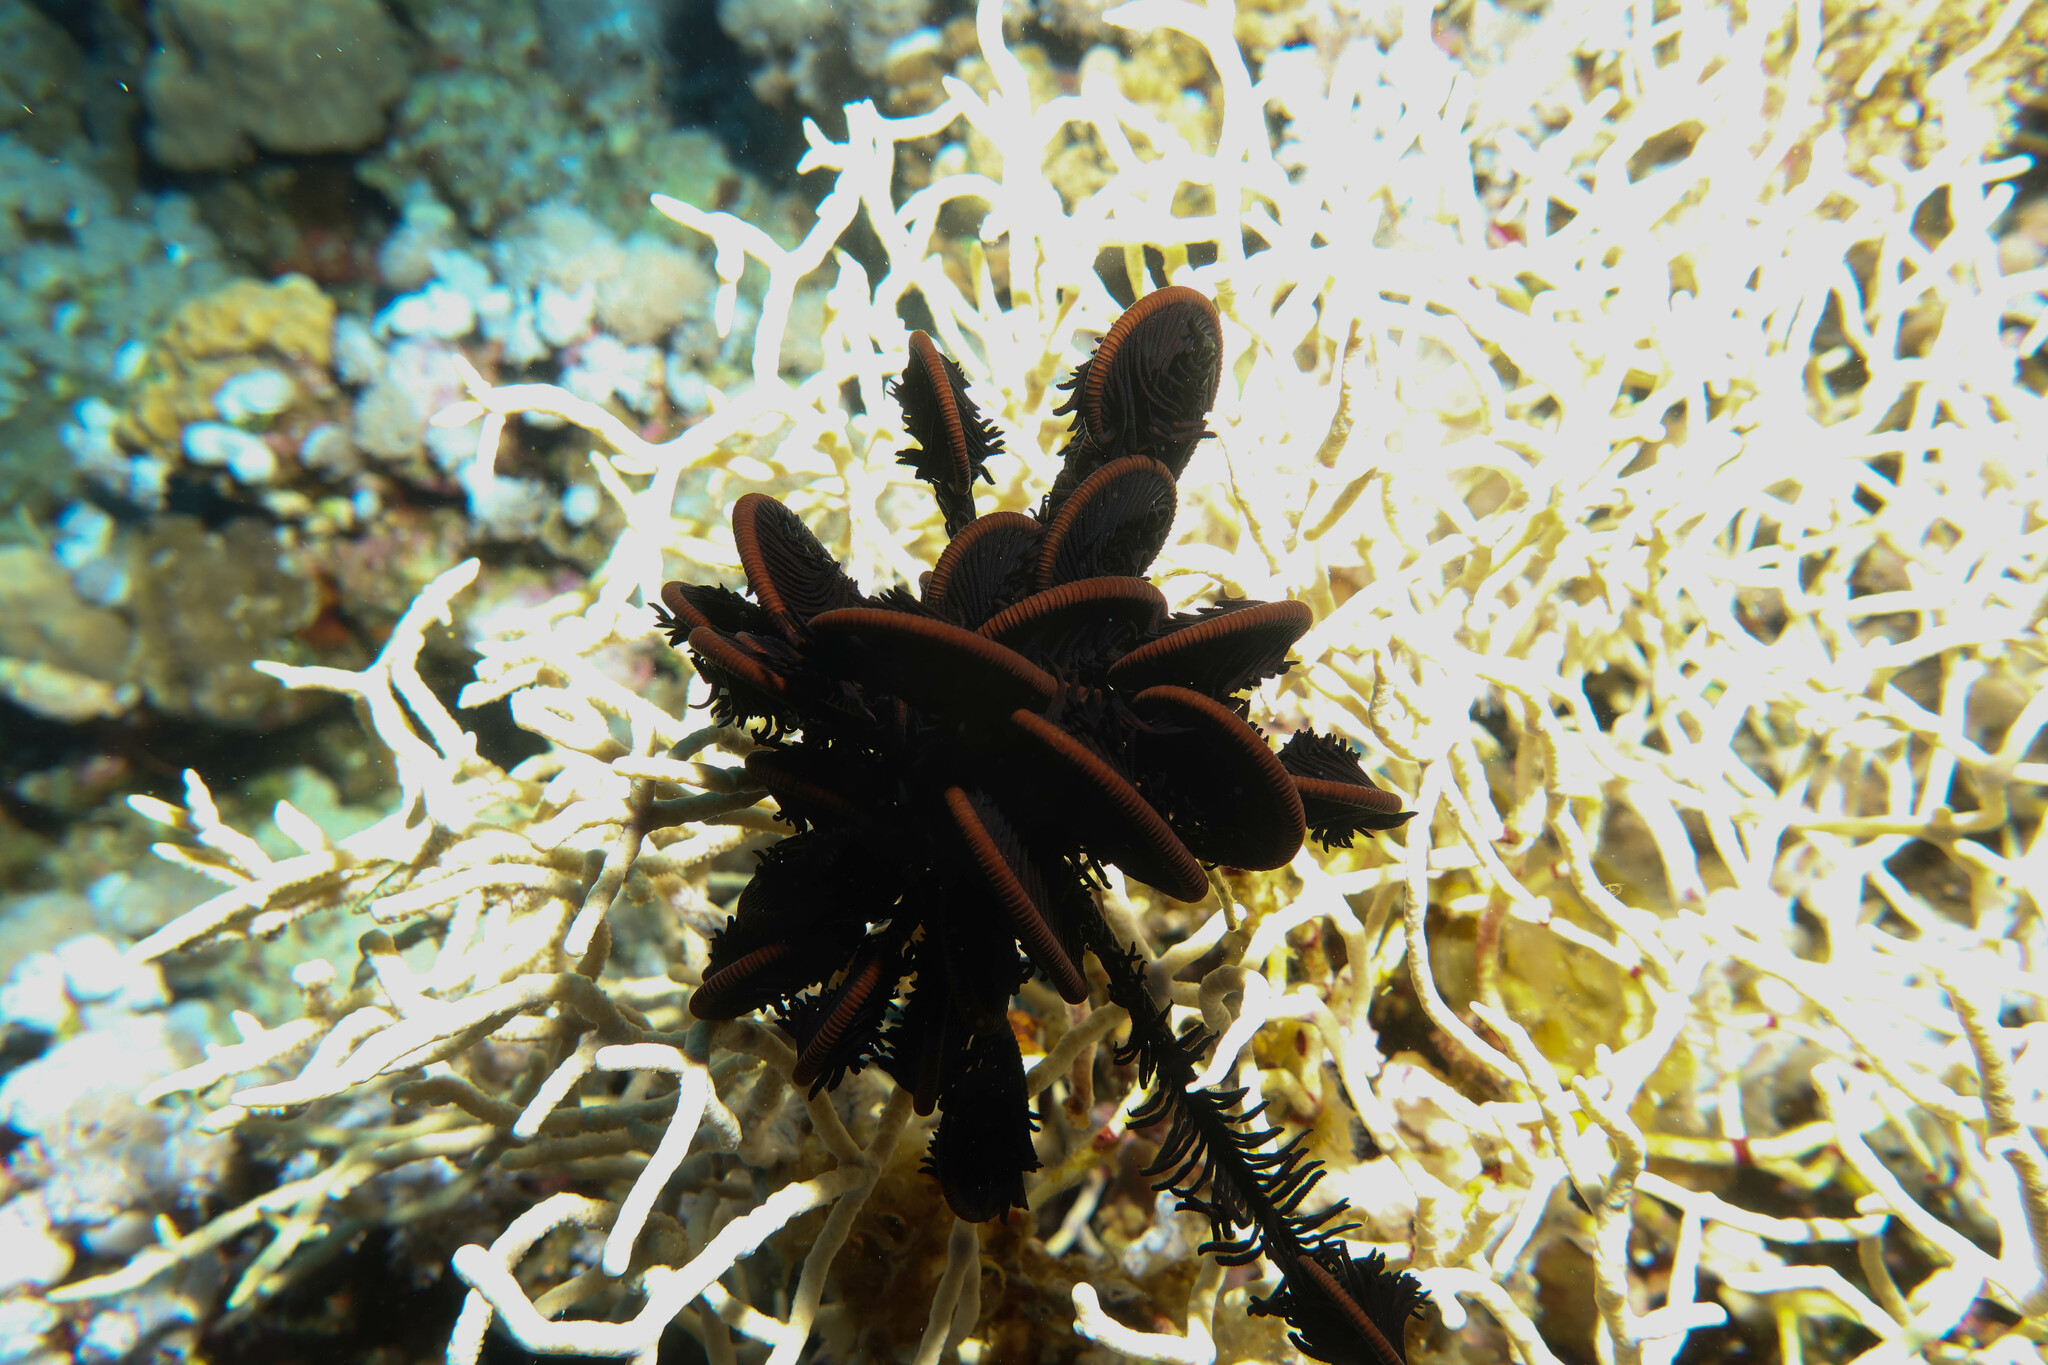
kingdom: Animalia
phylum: Echinodermata
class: Crinoidea
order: Comatulida
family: Comatulidae
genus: Capillaster
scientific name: Capillaster multiradiatus
